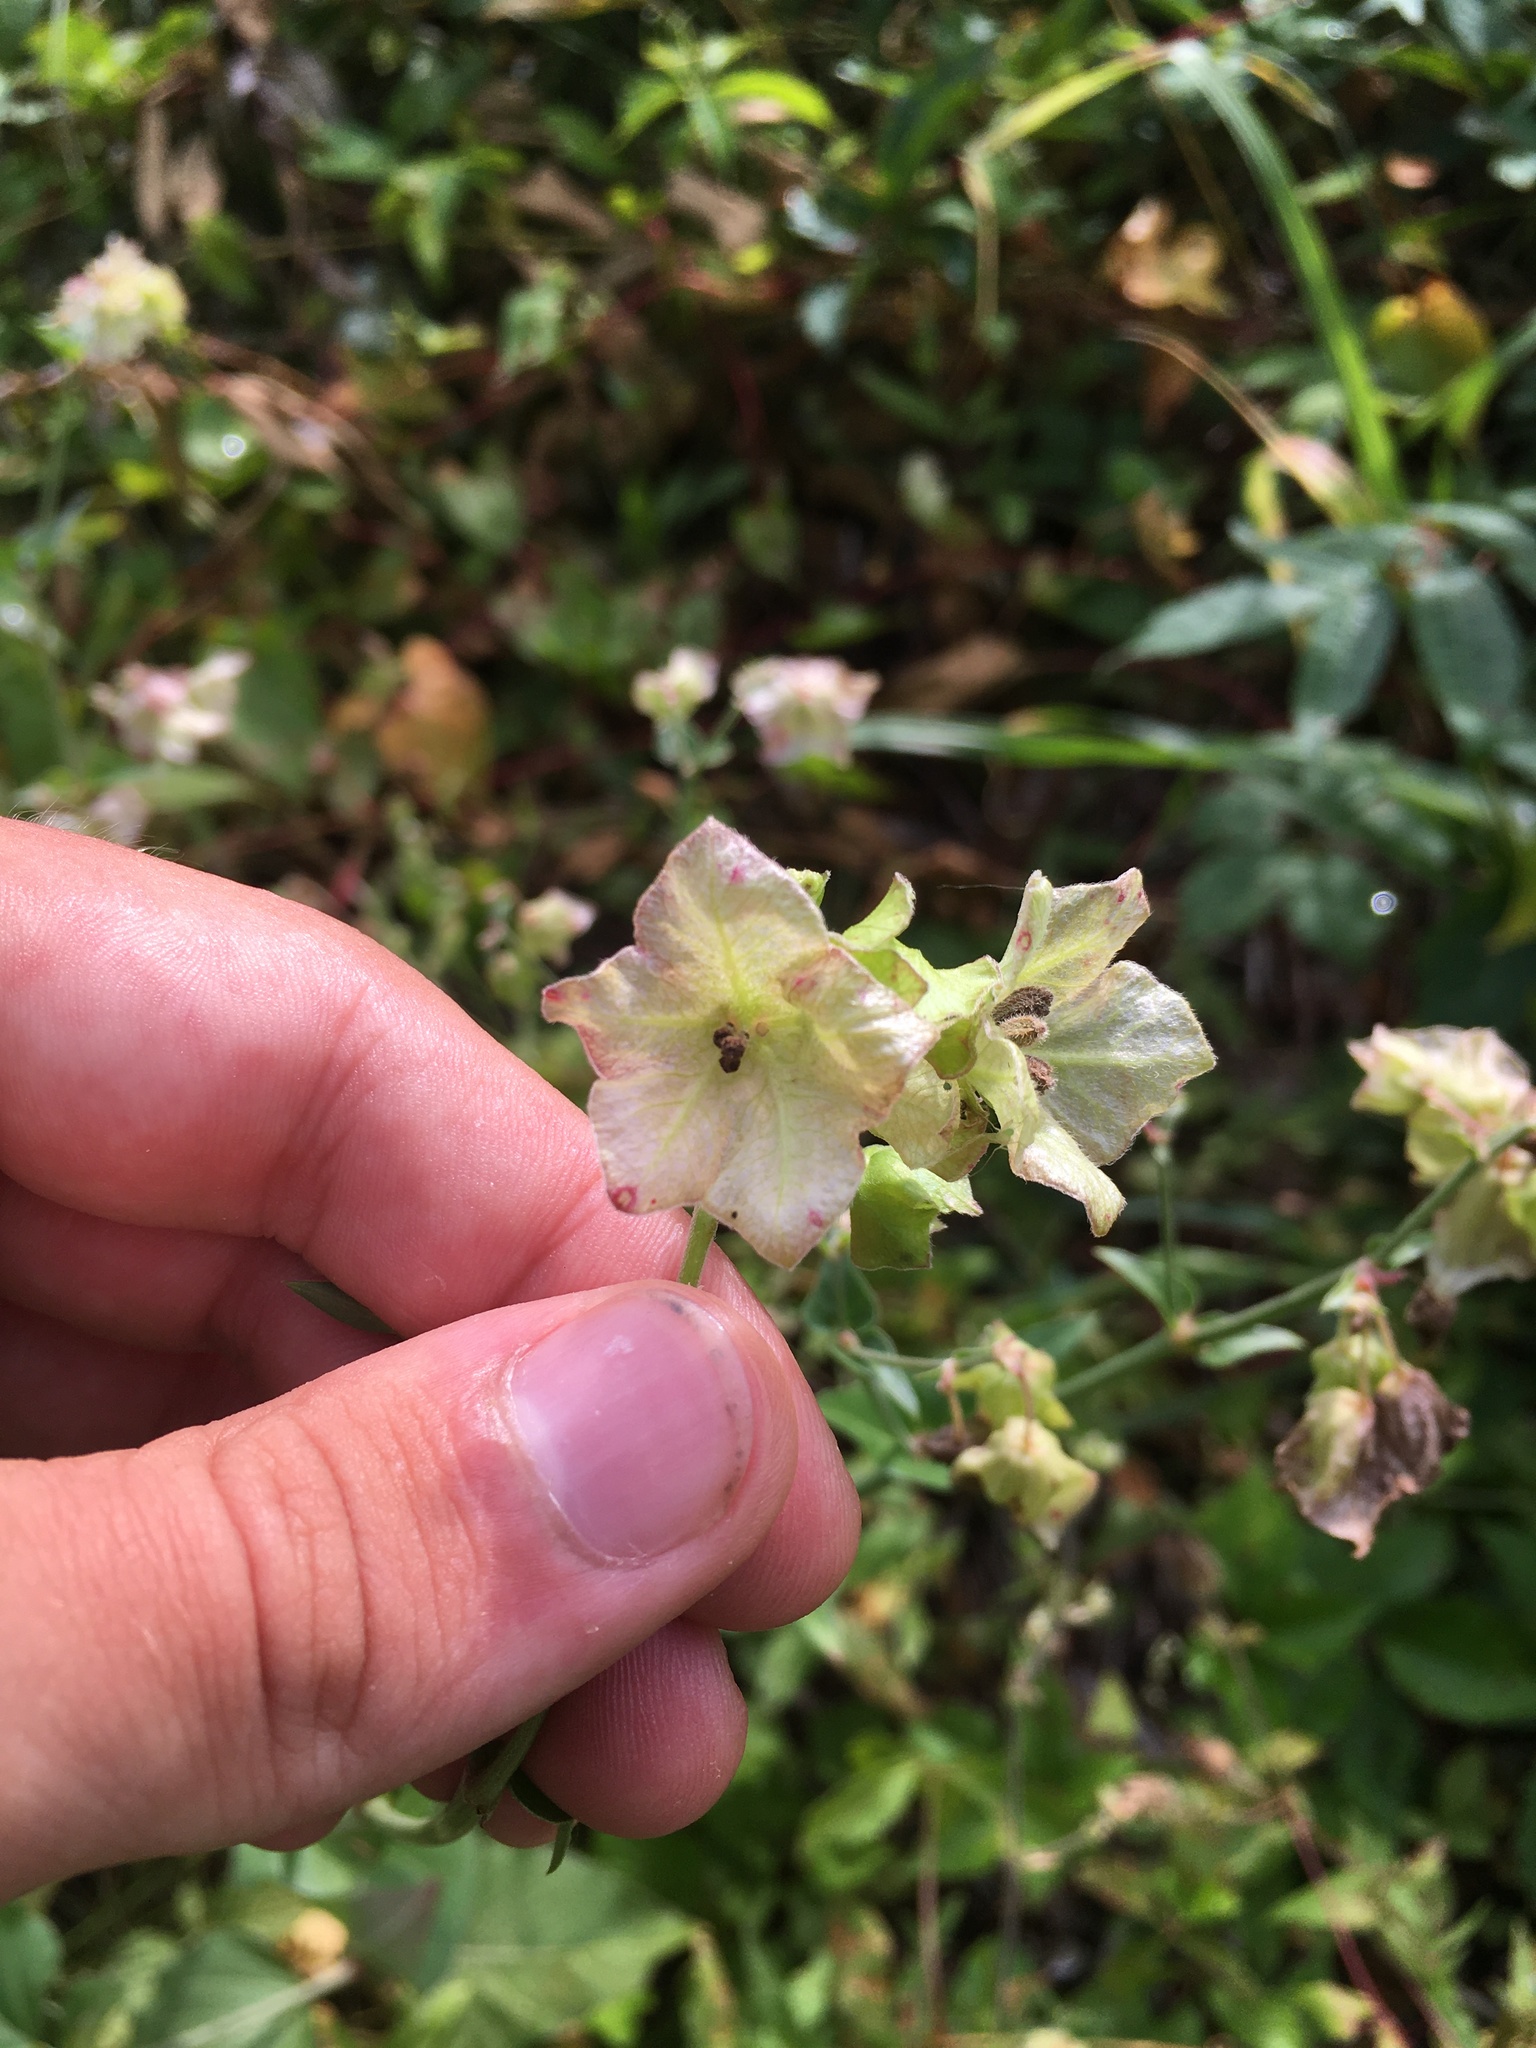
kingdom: Plantae
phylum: Tracheophyta
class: Magnoliopsida
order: Caryophyllales
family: Nyctaginaceae
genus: Mirabilis
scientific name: Mirabilis nyctaginea
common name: Umbrella wort
